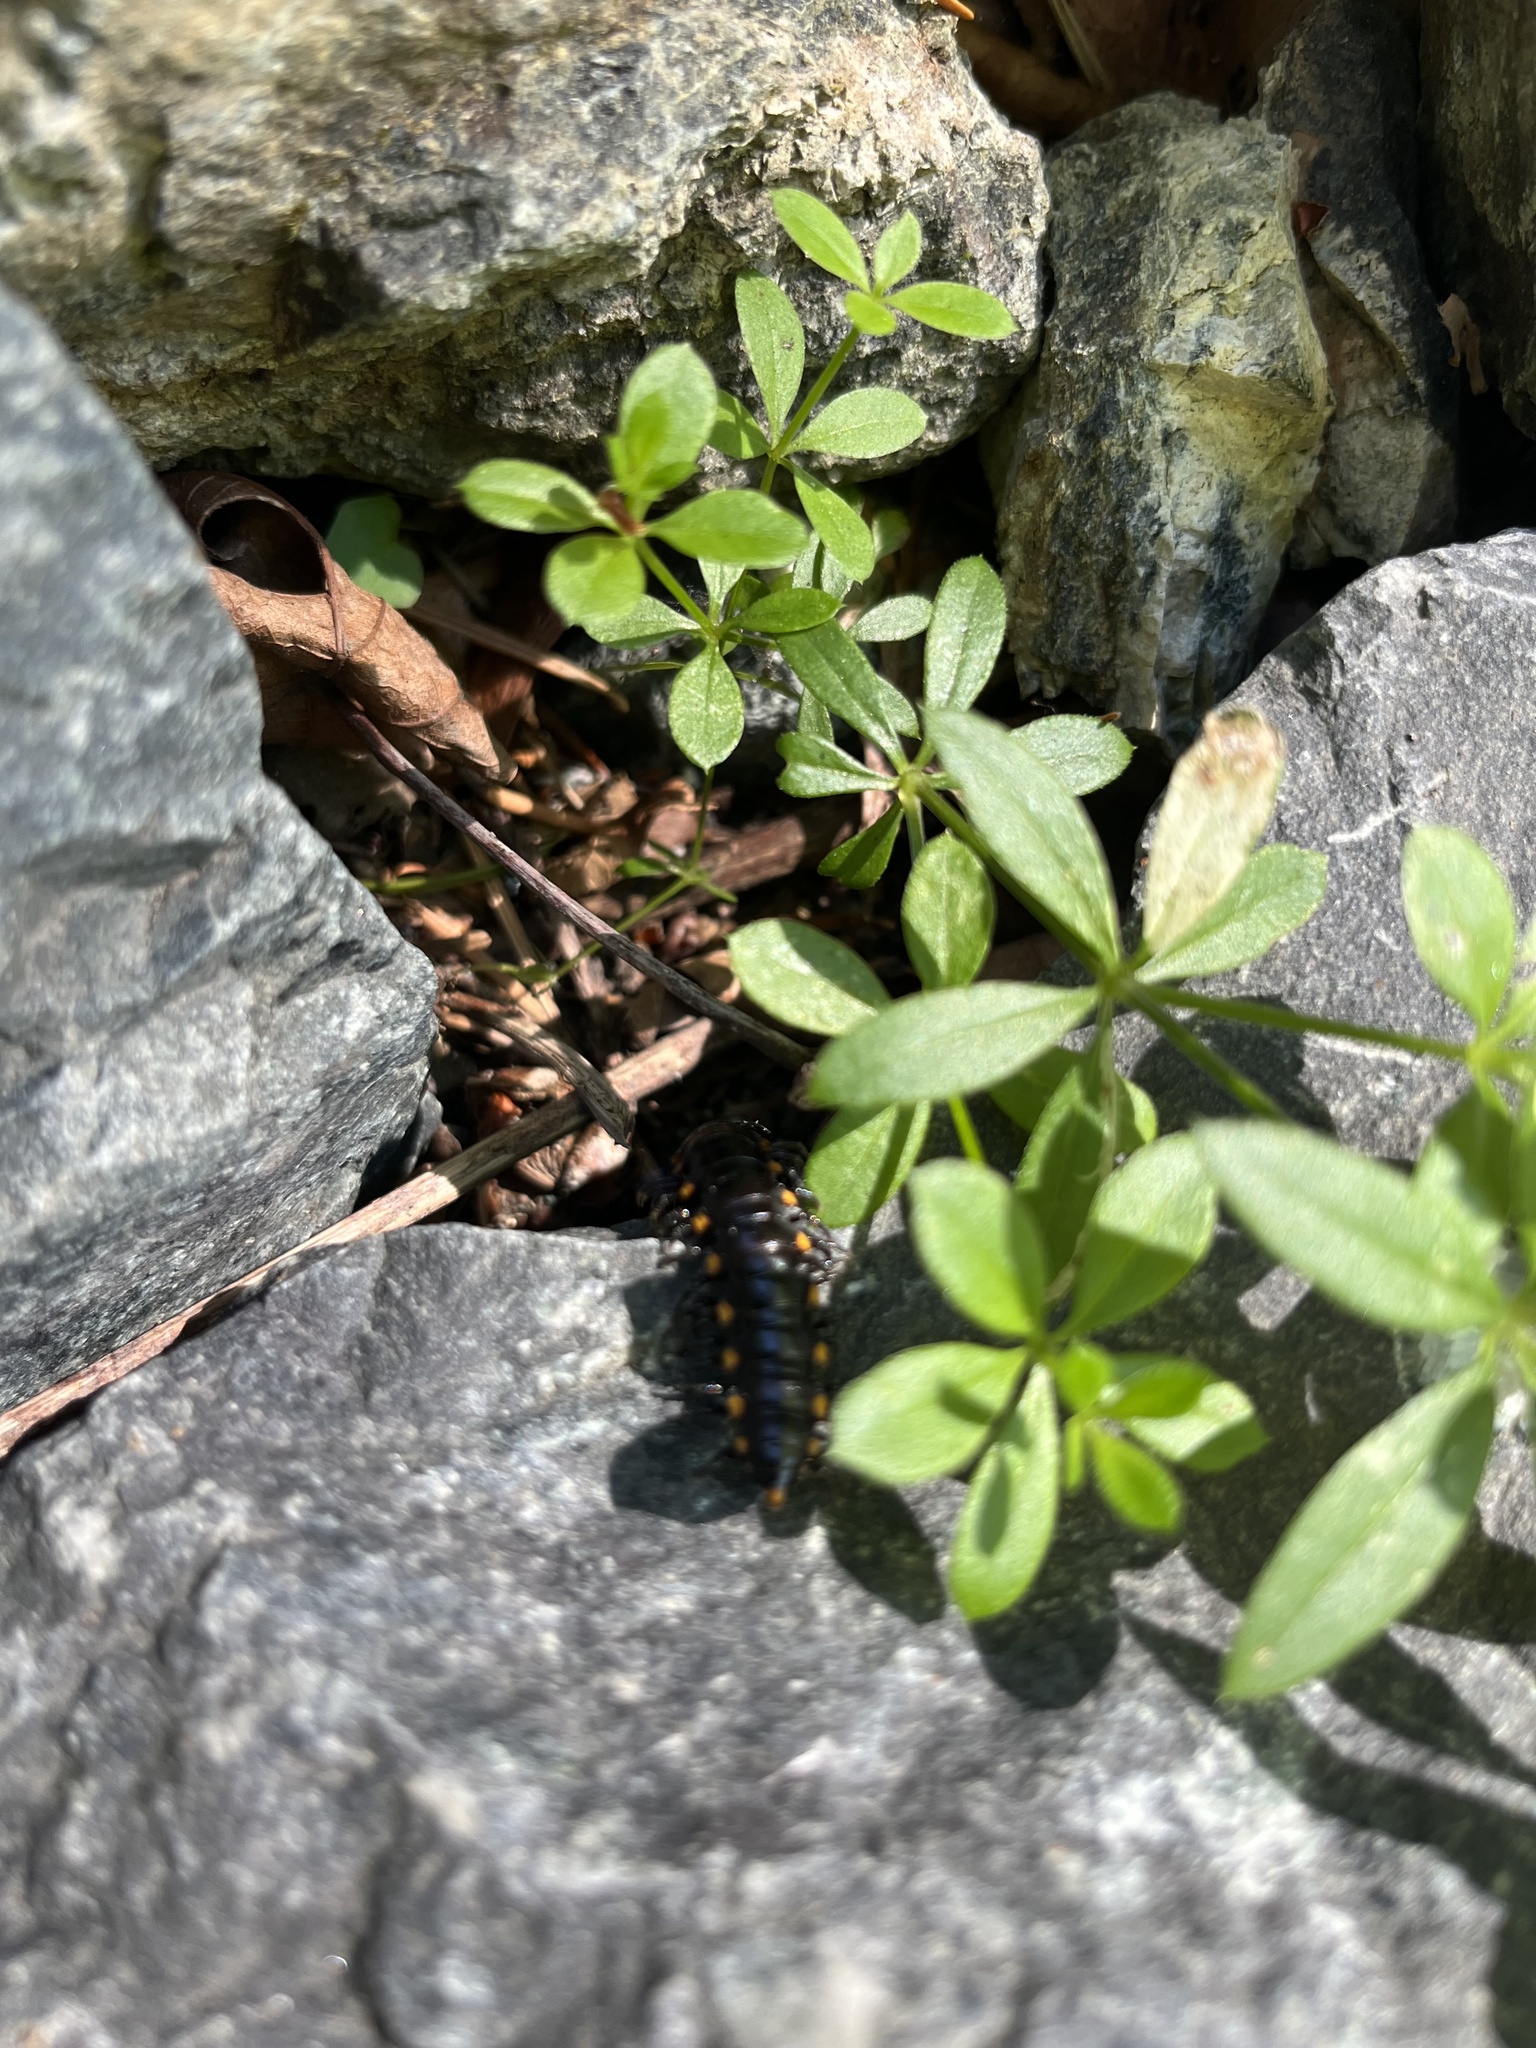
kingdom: Animalia
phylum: Arthropoda
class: Diplopoda
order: Polydesmida
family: Xystodesmidae
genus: Harpaphe
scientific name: Harpaphe haydeniana
